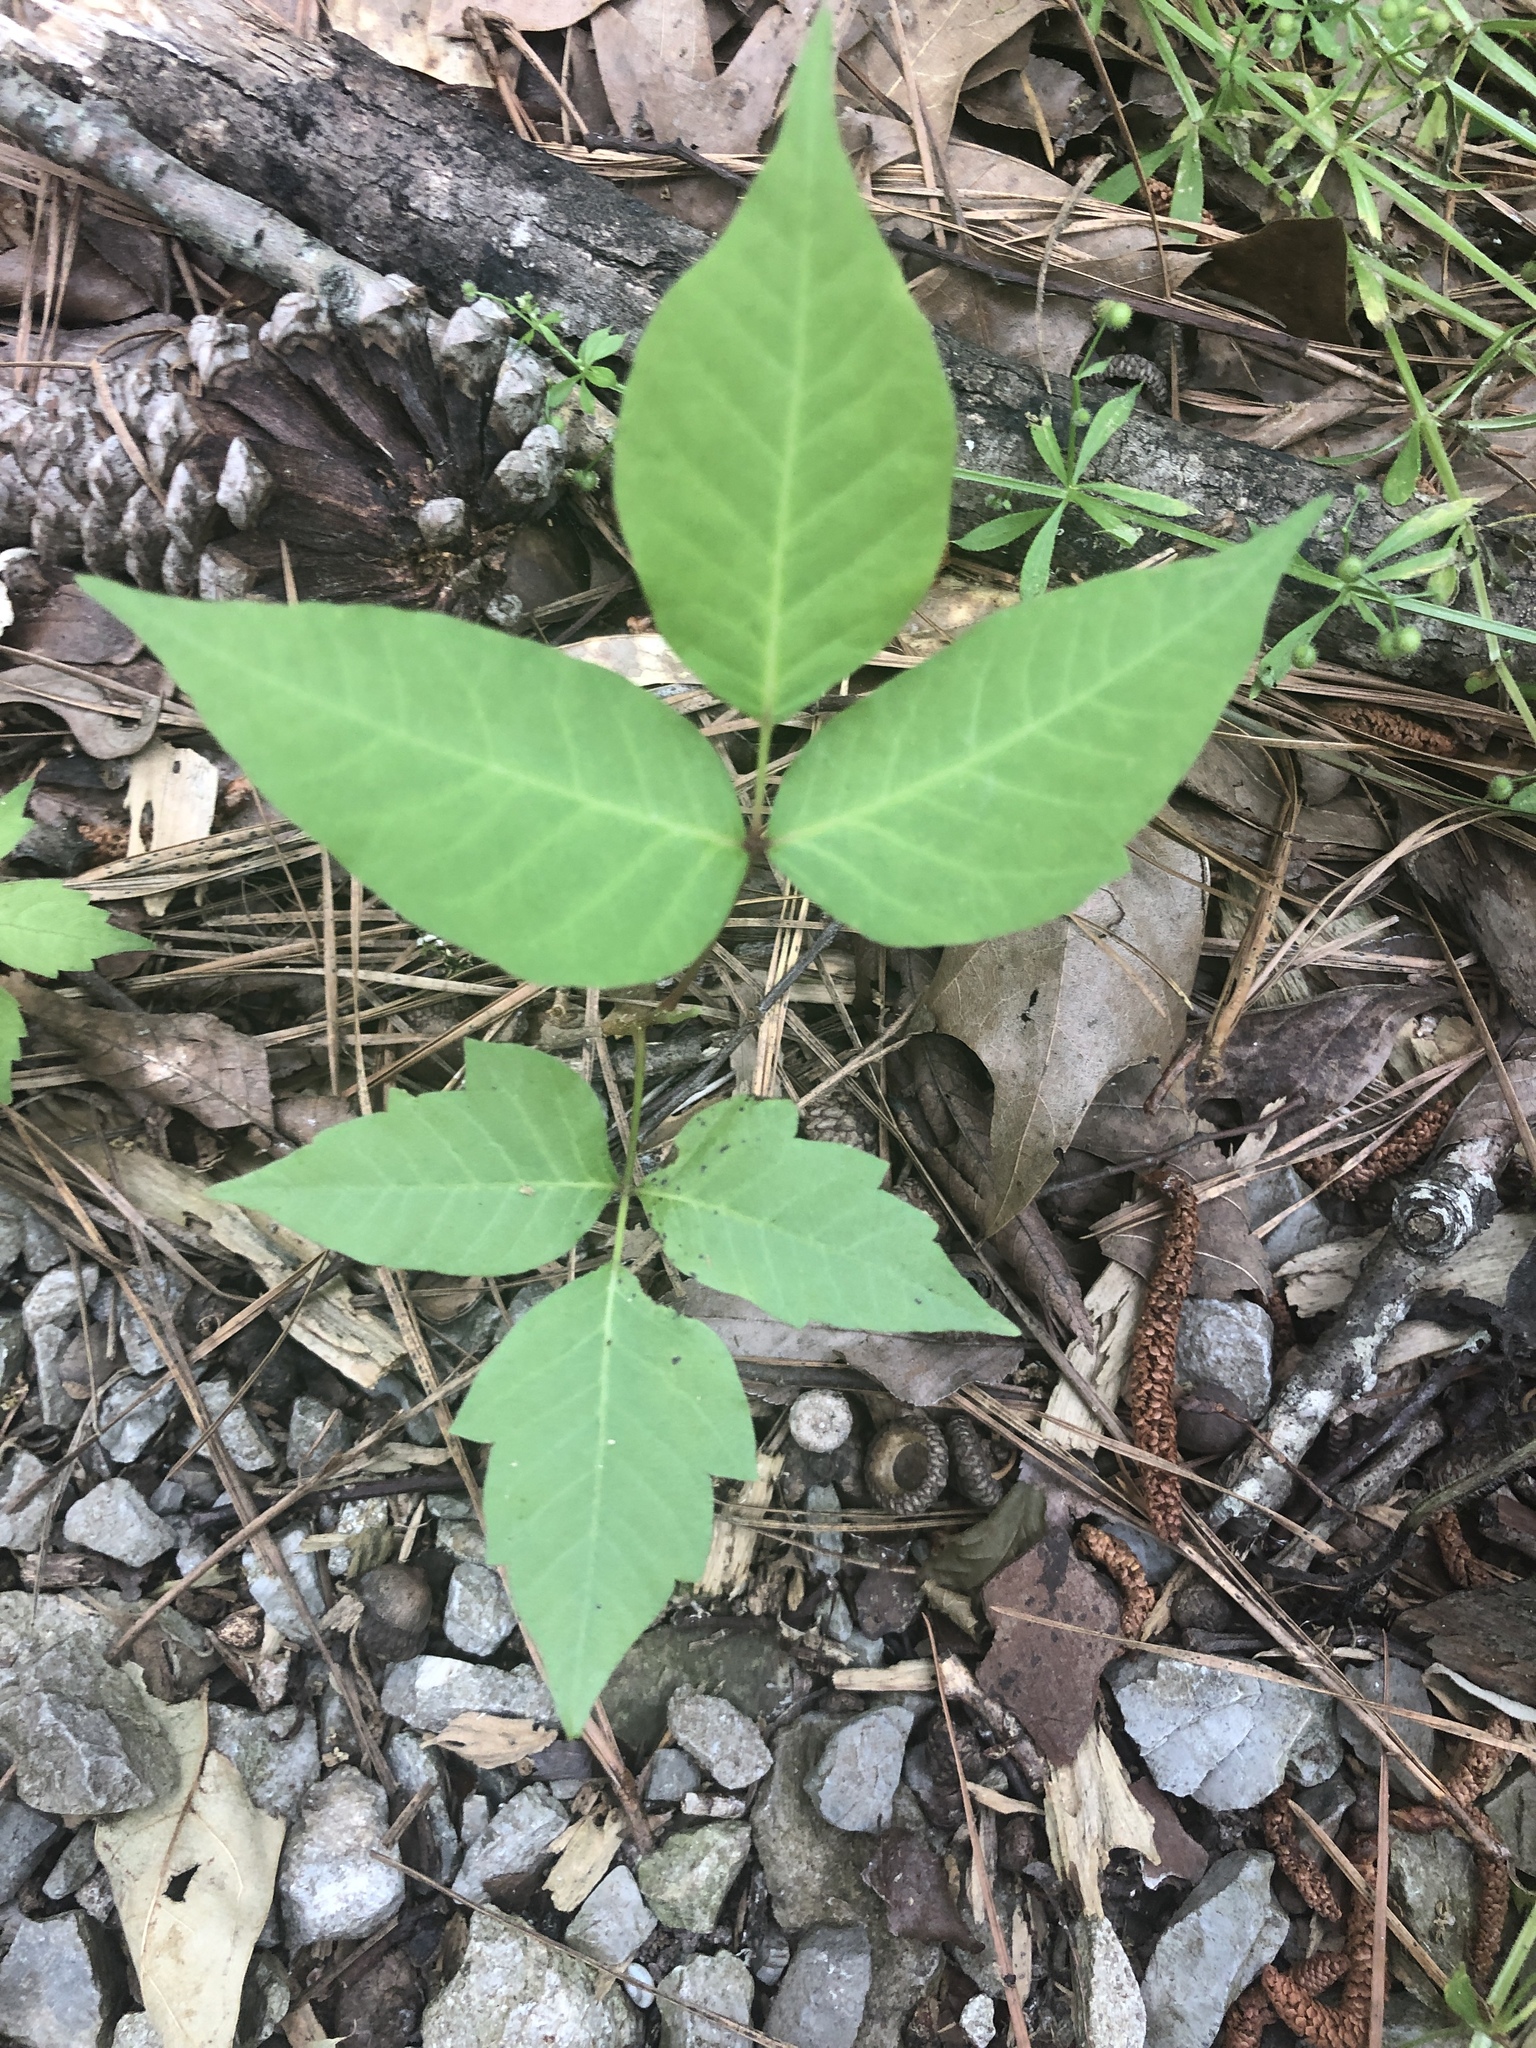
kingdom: Plantae
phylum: Tracheophyta
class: Magnoliopsida
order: Sapindales
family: Anacardiaceae
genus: Toxicodendron
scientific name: Toxicodendron radicans
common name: Poison ivy
